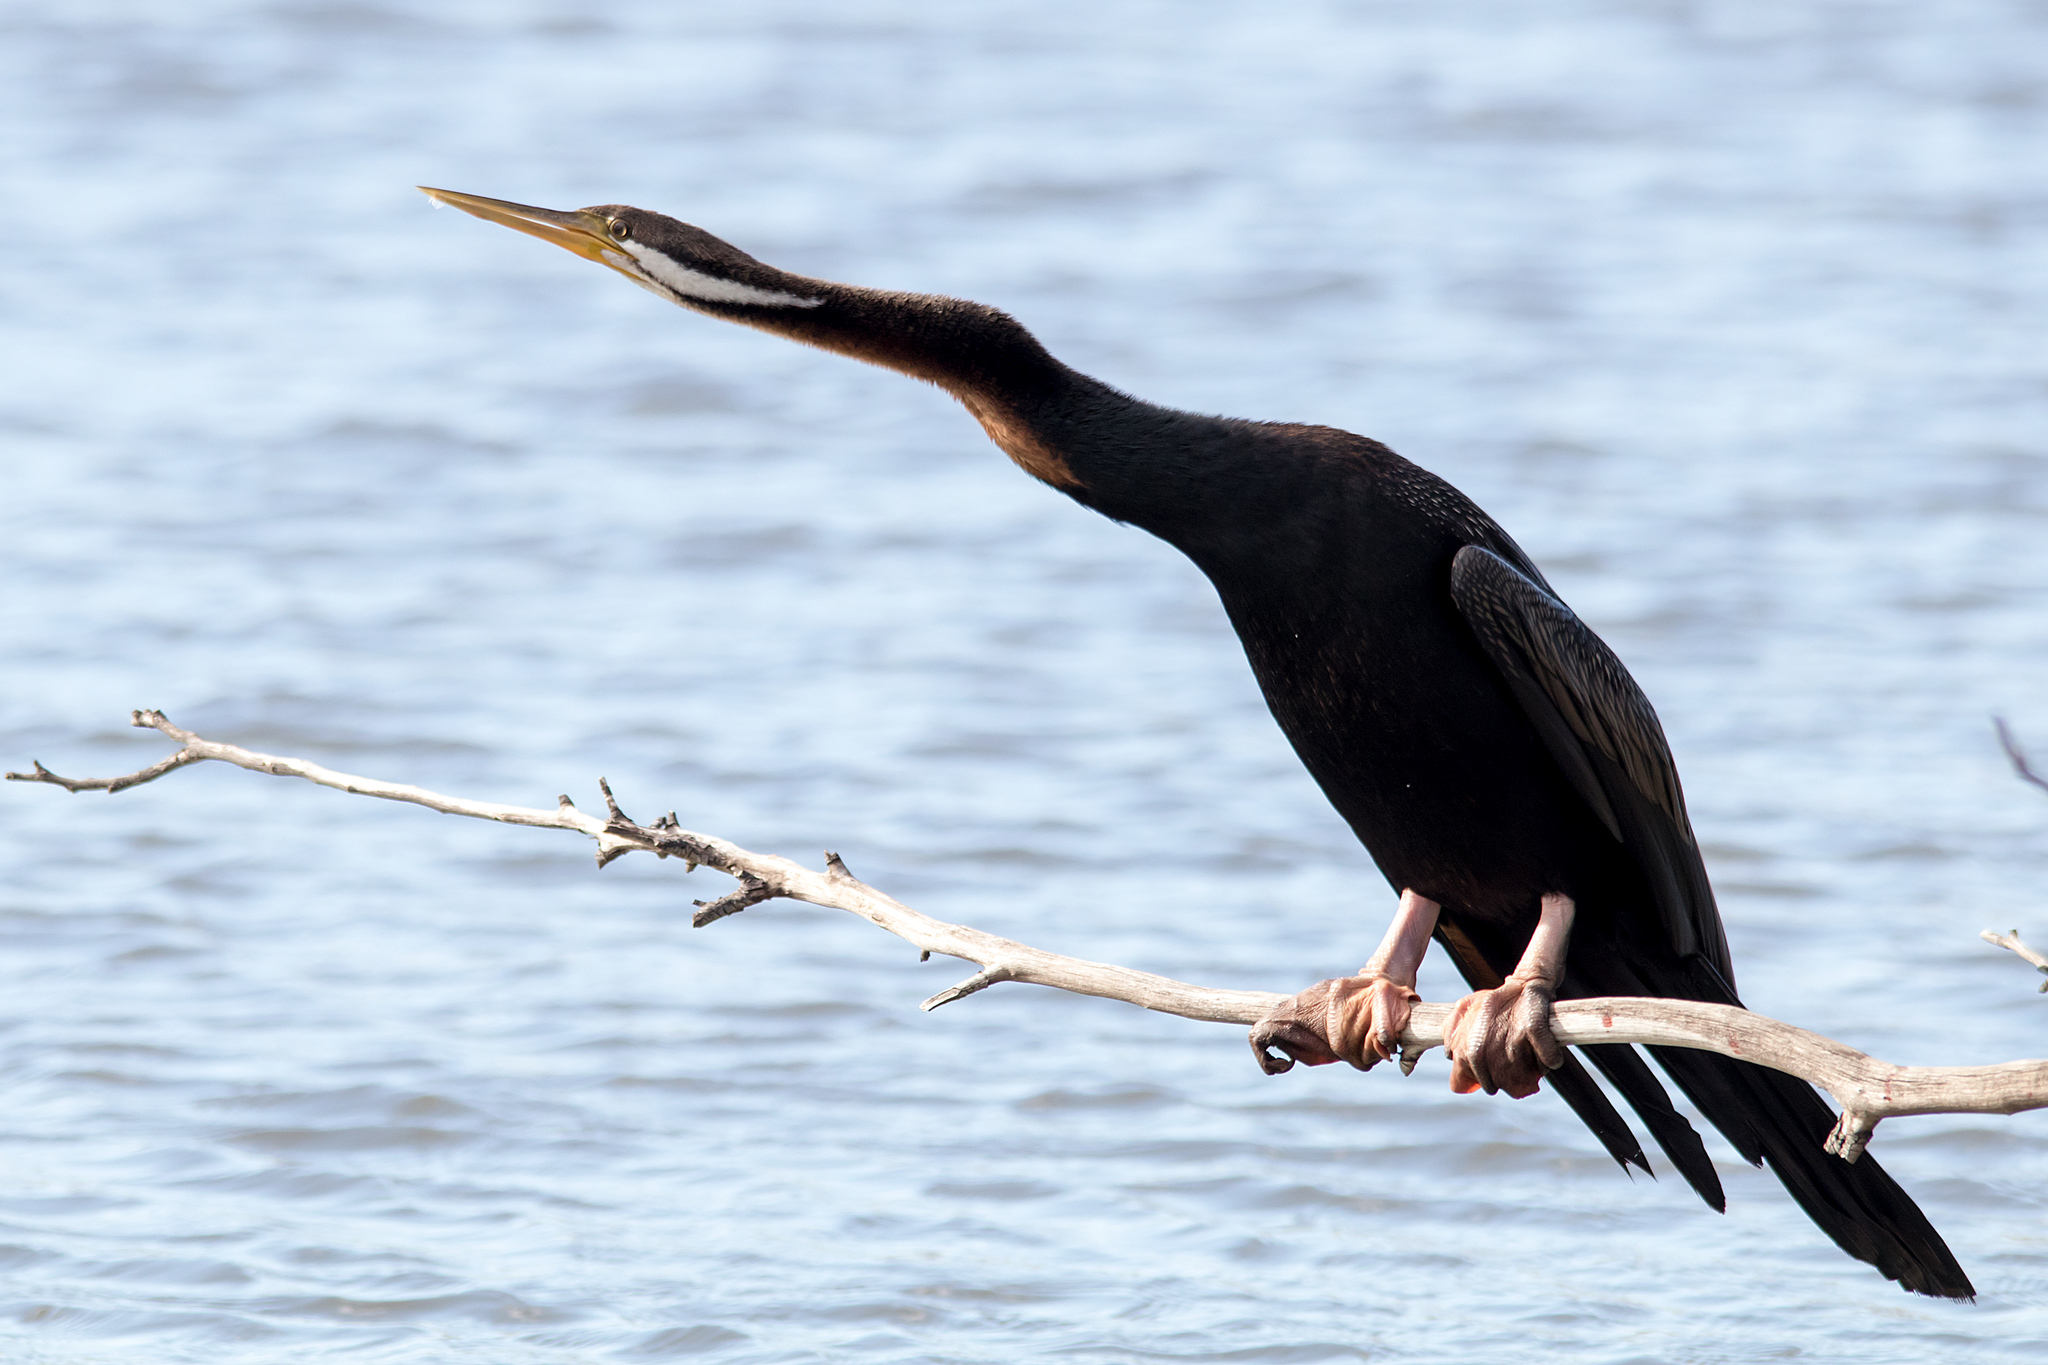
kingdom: Animalia
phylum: Chordata
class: Aves
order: Suliformes
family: Anhingidae
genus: Anhinga
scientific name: Anhinga novaehollandiae
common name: Australasian darter
